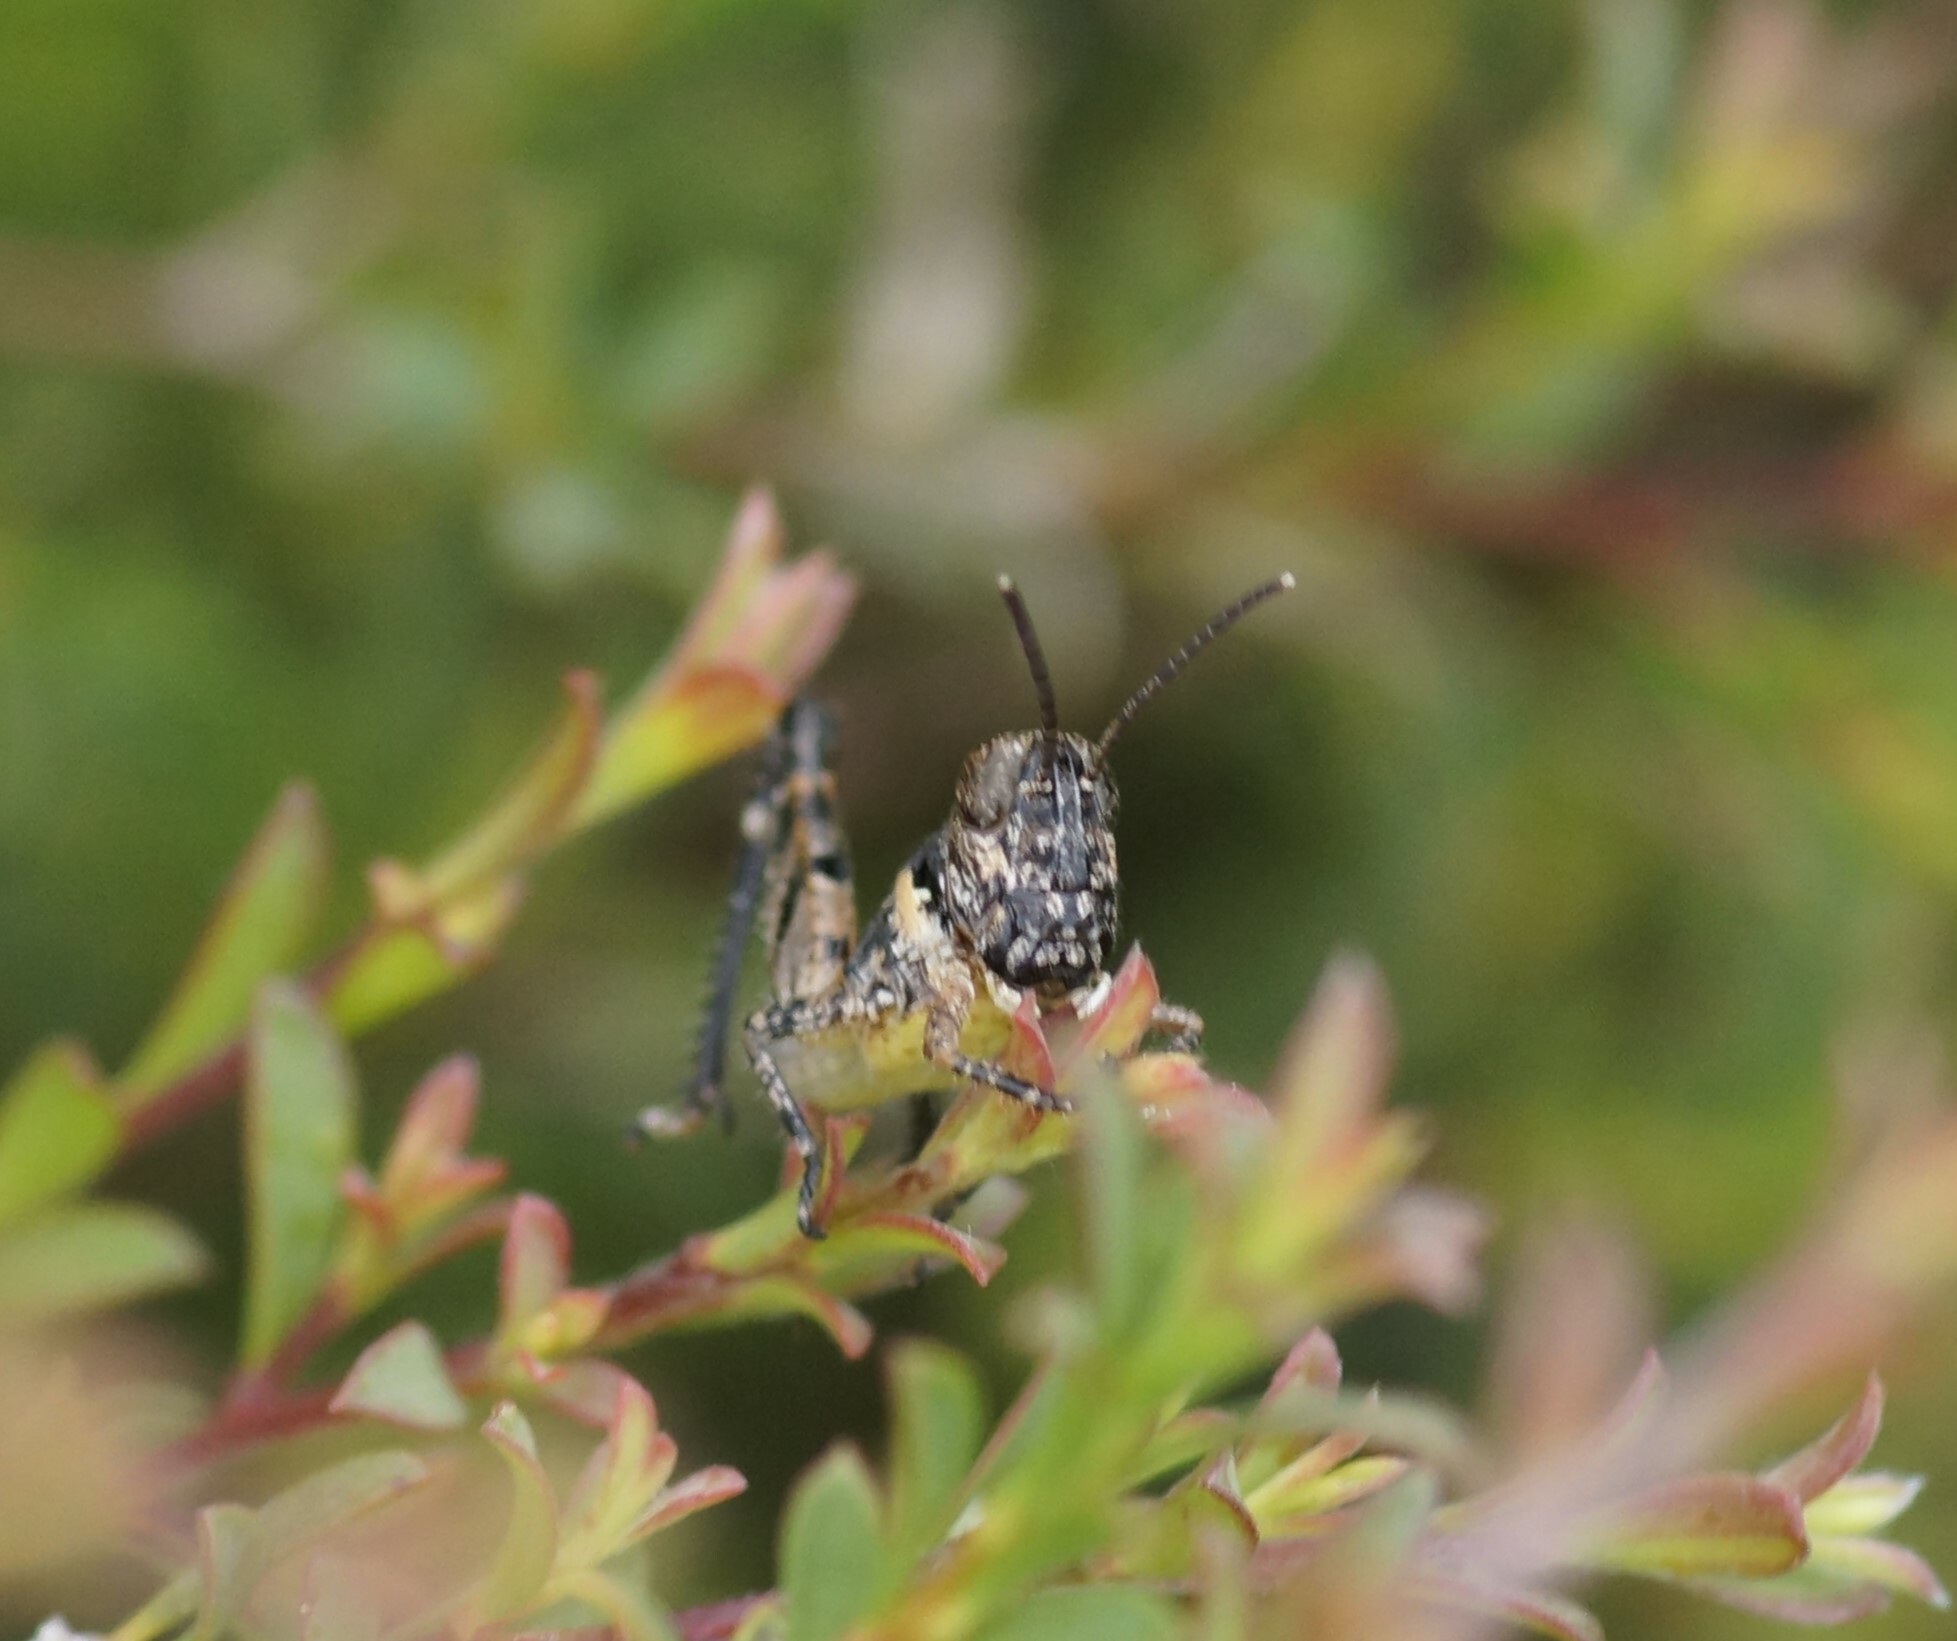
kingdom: Animalia
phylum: Arthropoda
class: Insecta
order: Orthoptera
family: Acrididae
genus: Phaulacridium
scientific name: Phaulacridium vittatum
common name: Wingless grasshopper
